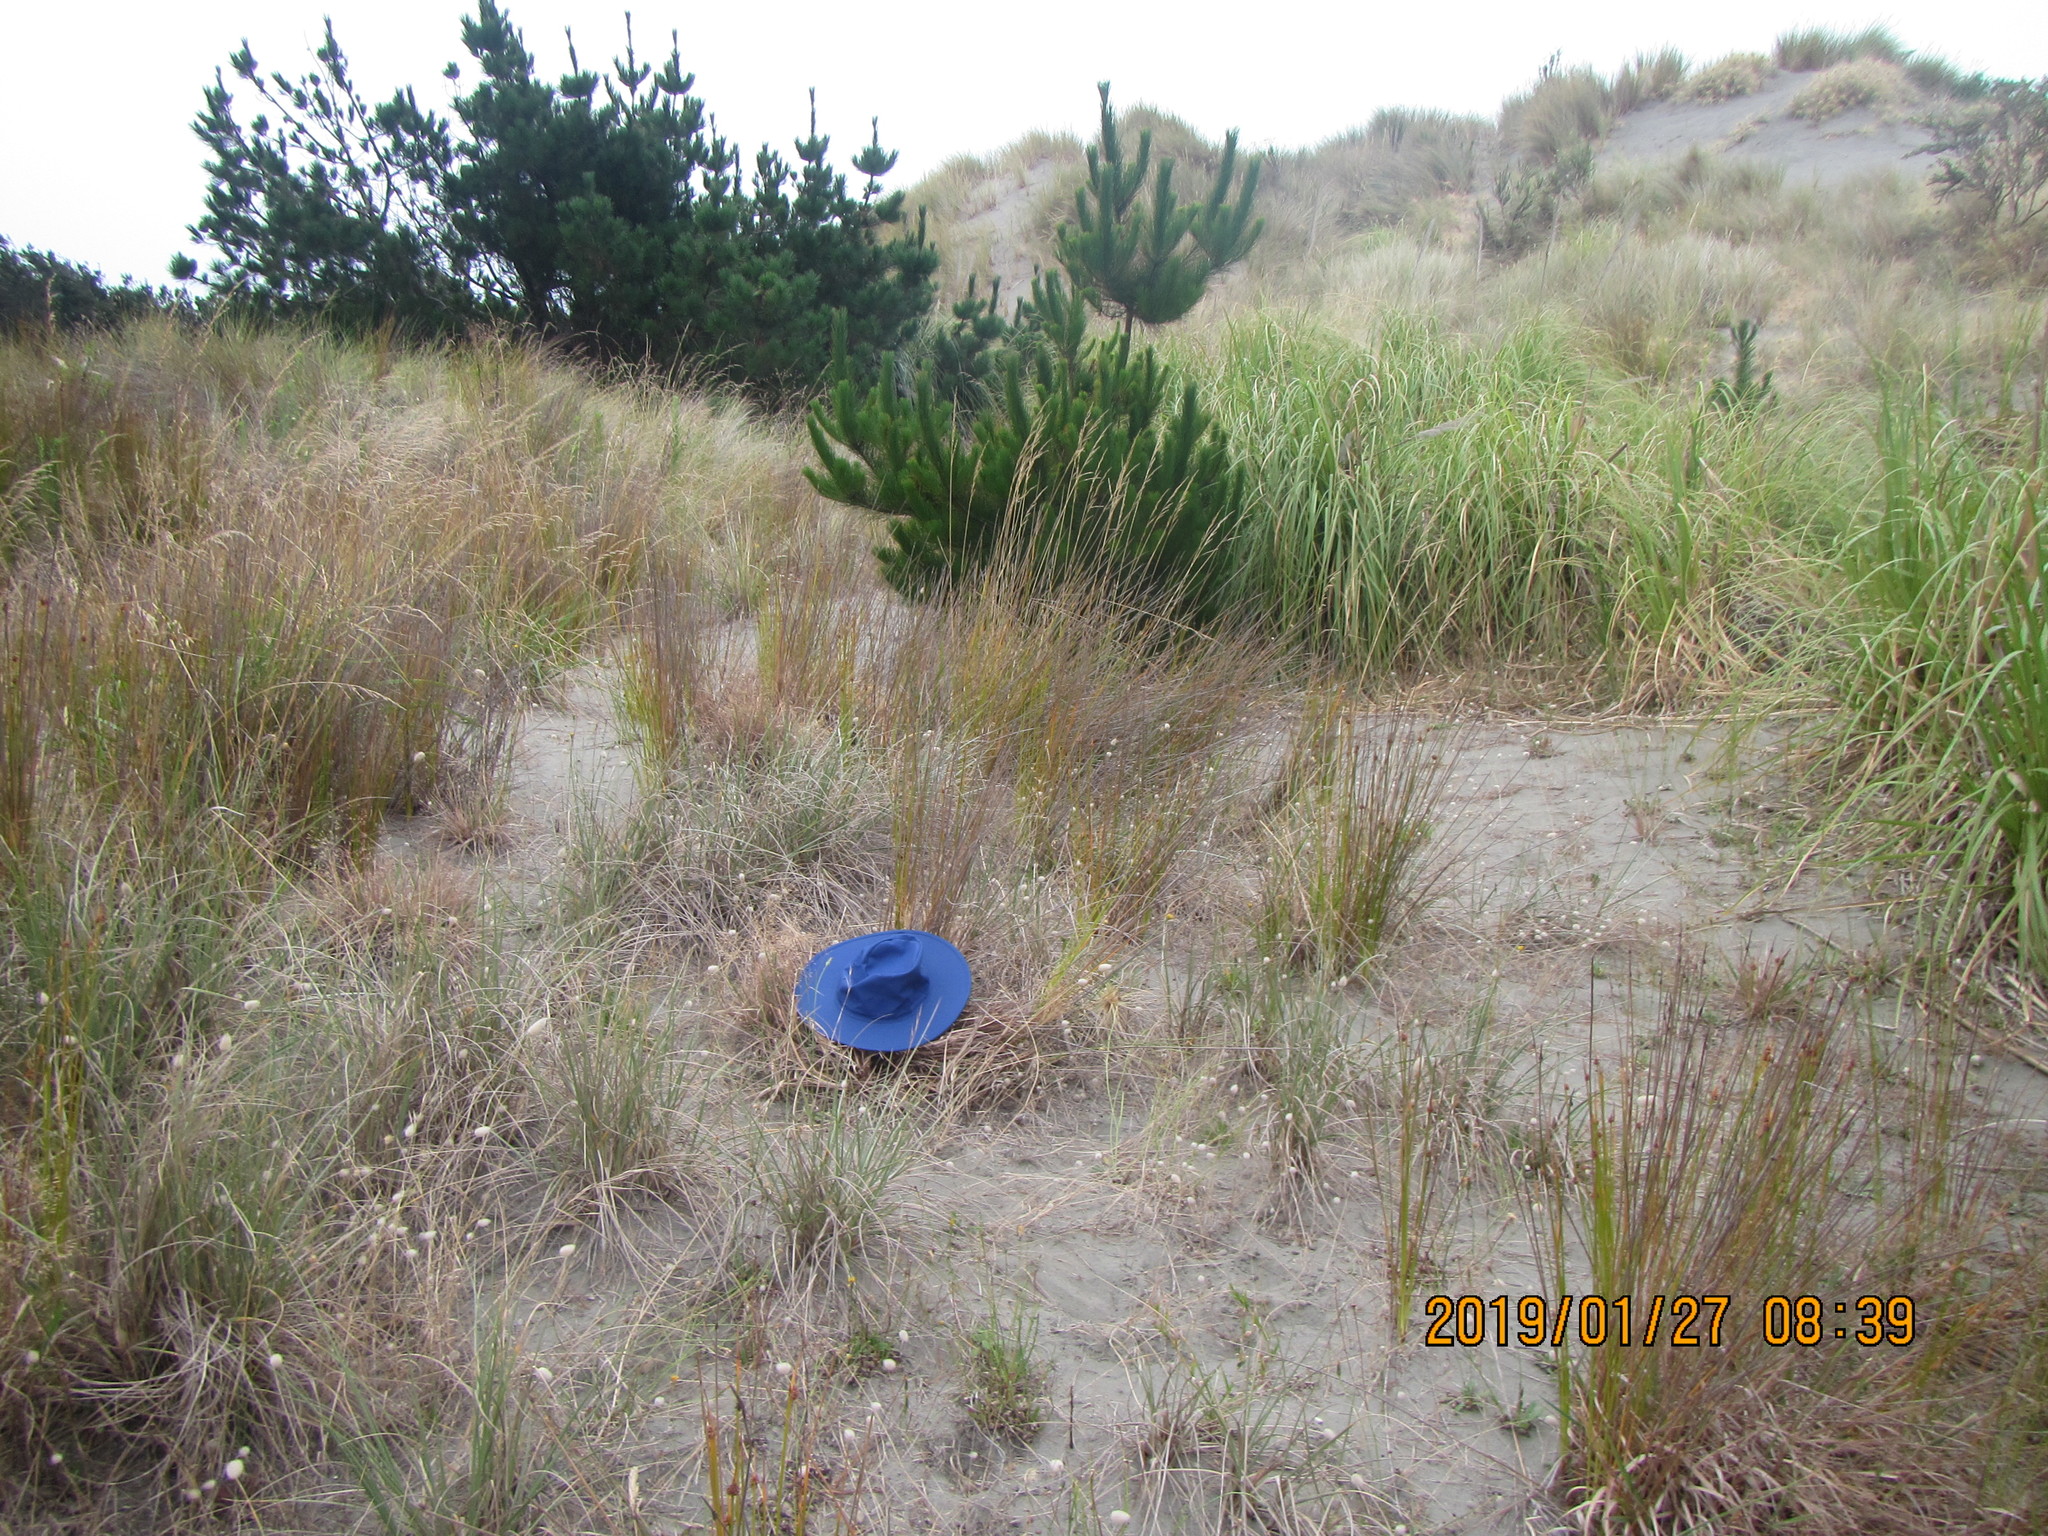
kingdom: Animalia
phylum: Arthropoda
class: Arachnida
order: Araneae
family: Oxyopidae
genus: Oxyopes
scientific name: Oxyopes gracilipes
